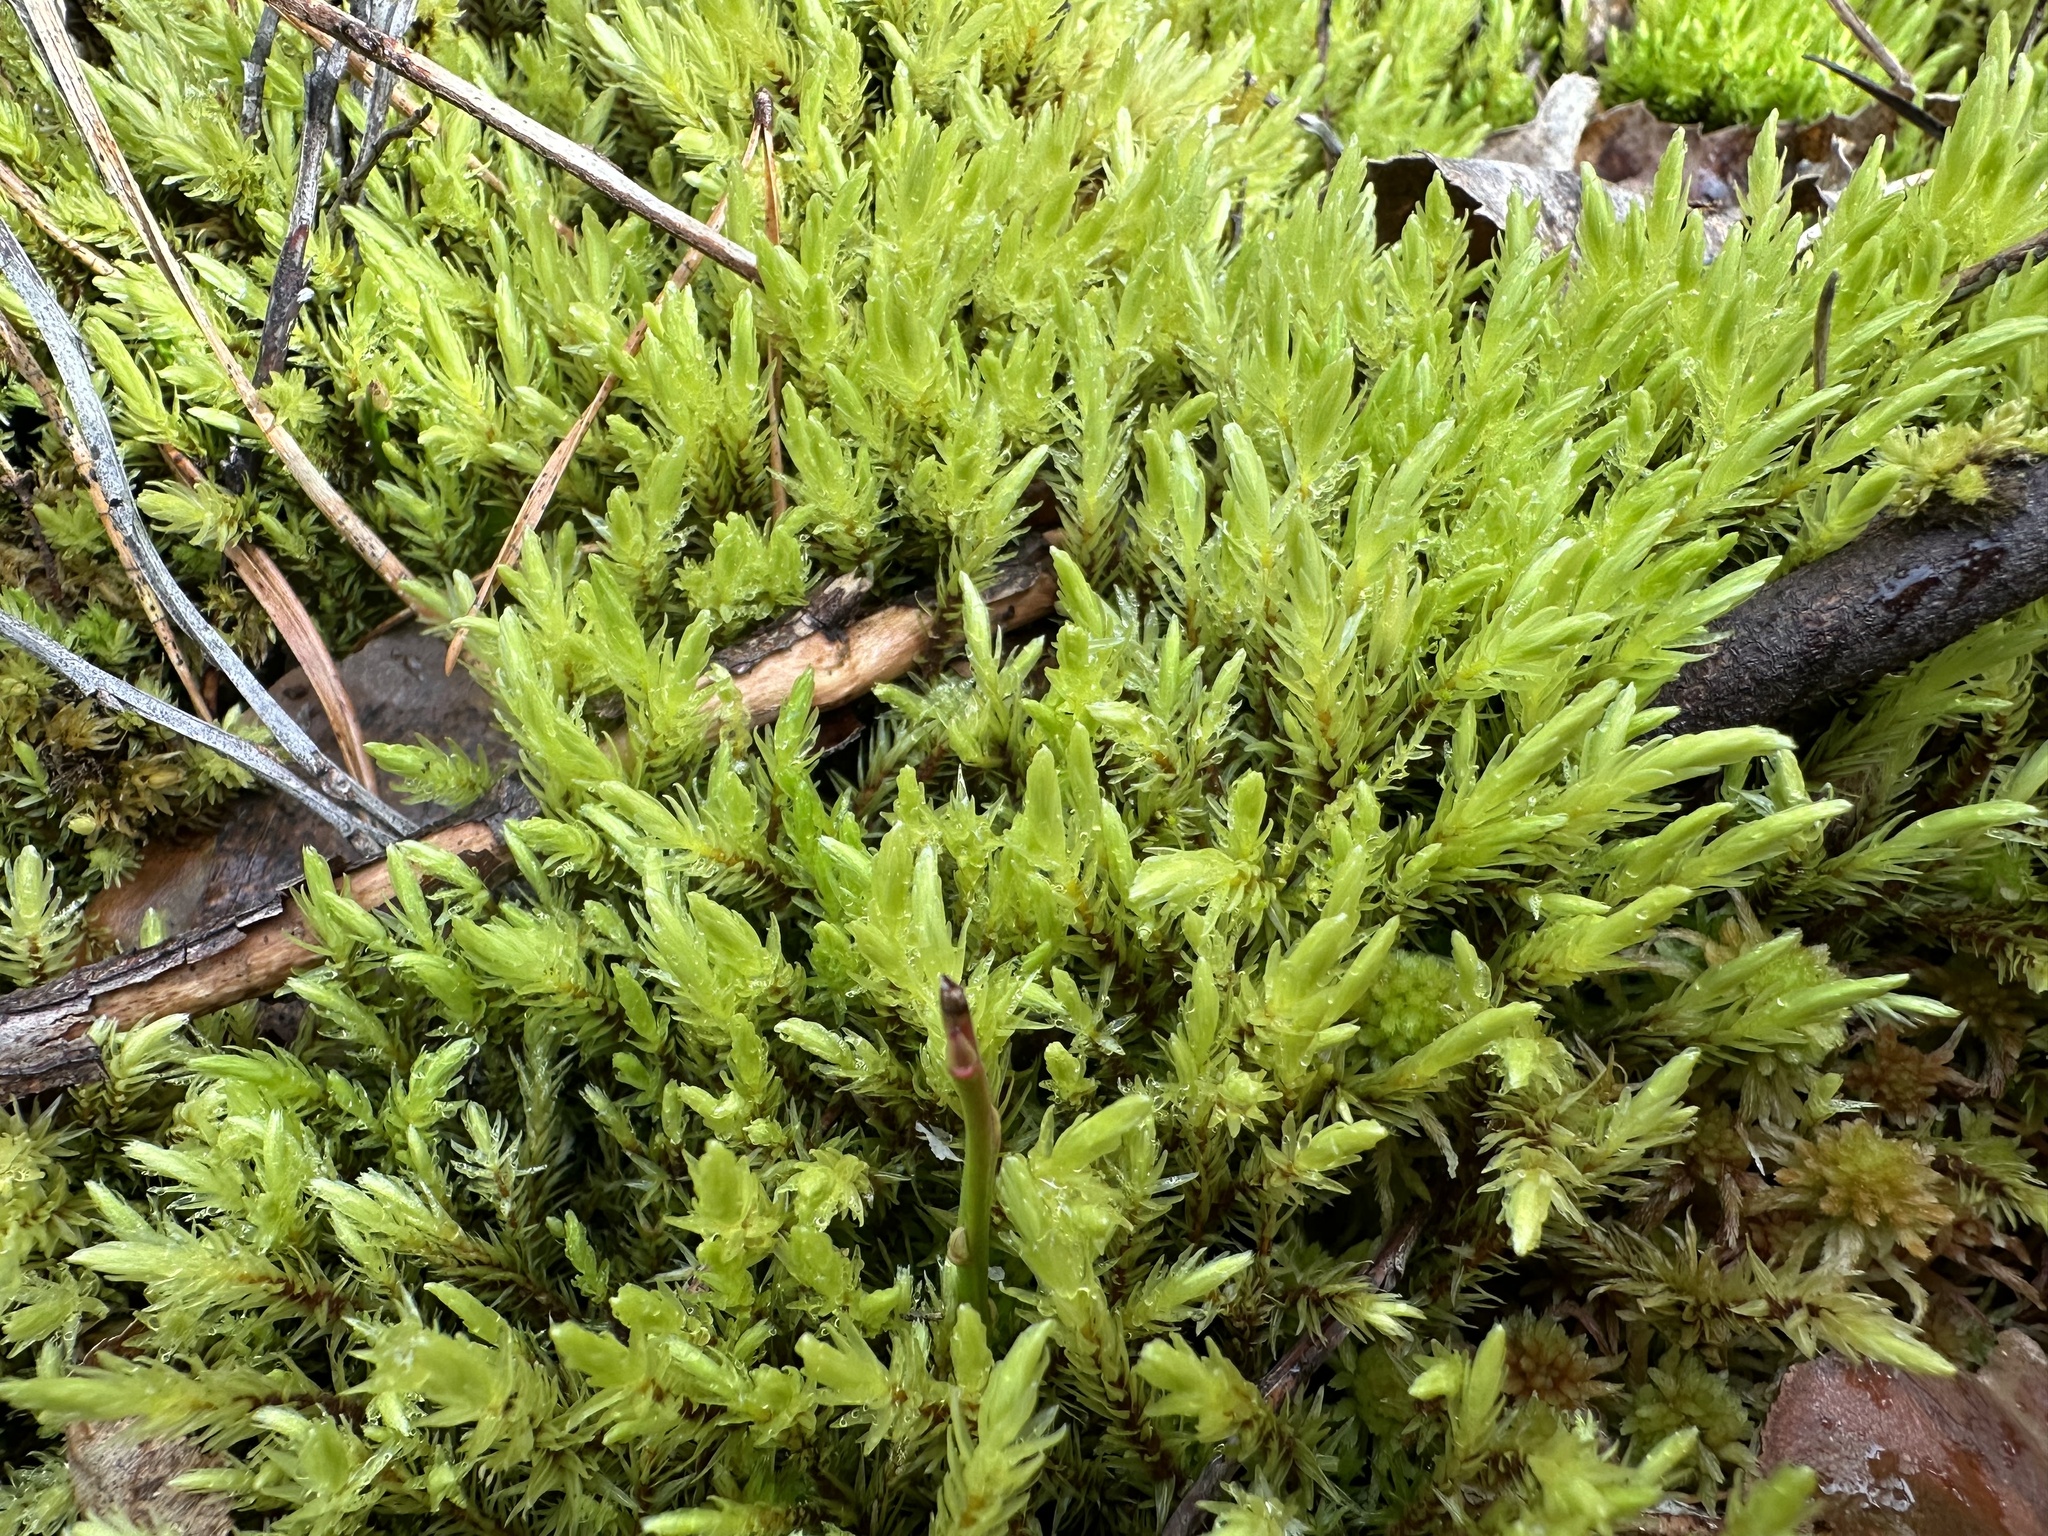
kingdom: Plantae
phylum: Bryophyta
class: Bryopsida
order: Aulacomniales
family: Aulacomniaceae
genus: Aulacomnium
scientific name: Aulacomnium palustre
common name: Bog groove-moss
